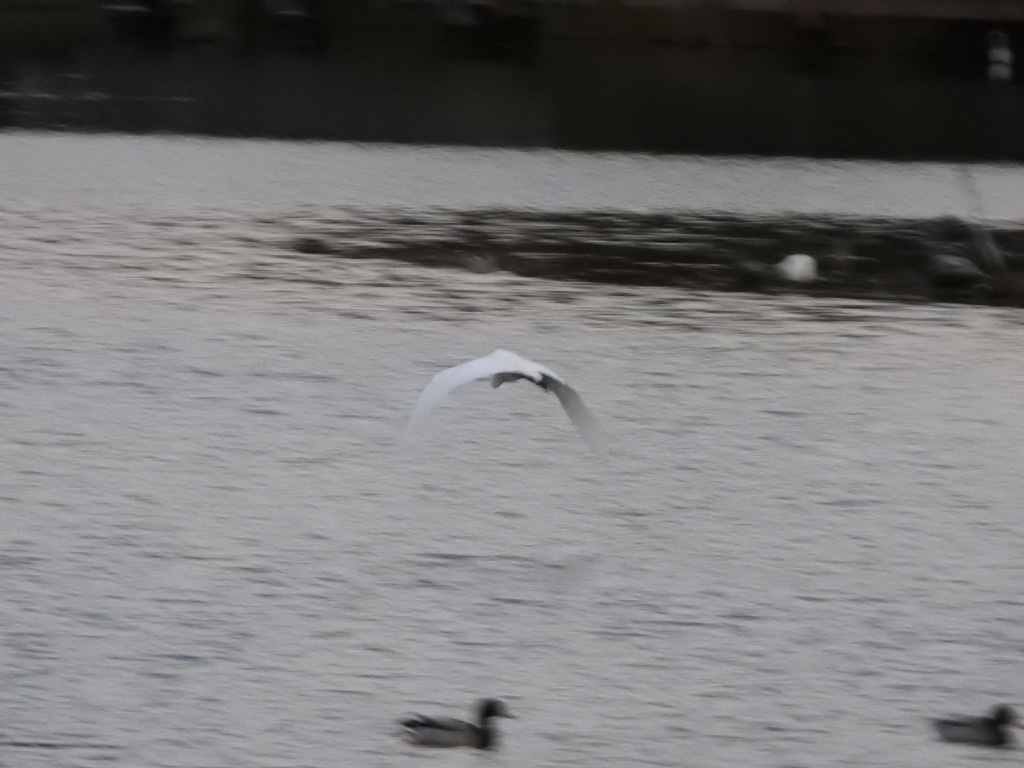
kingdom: Animalia
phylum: Chordata
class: Aves
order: Pelecaniformes
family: Ardeidae
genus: Ardea
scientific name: Ardea alba
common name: Great egret
